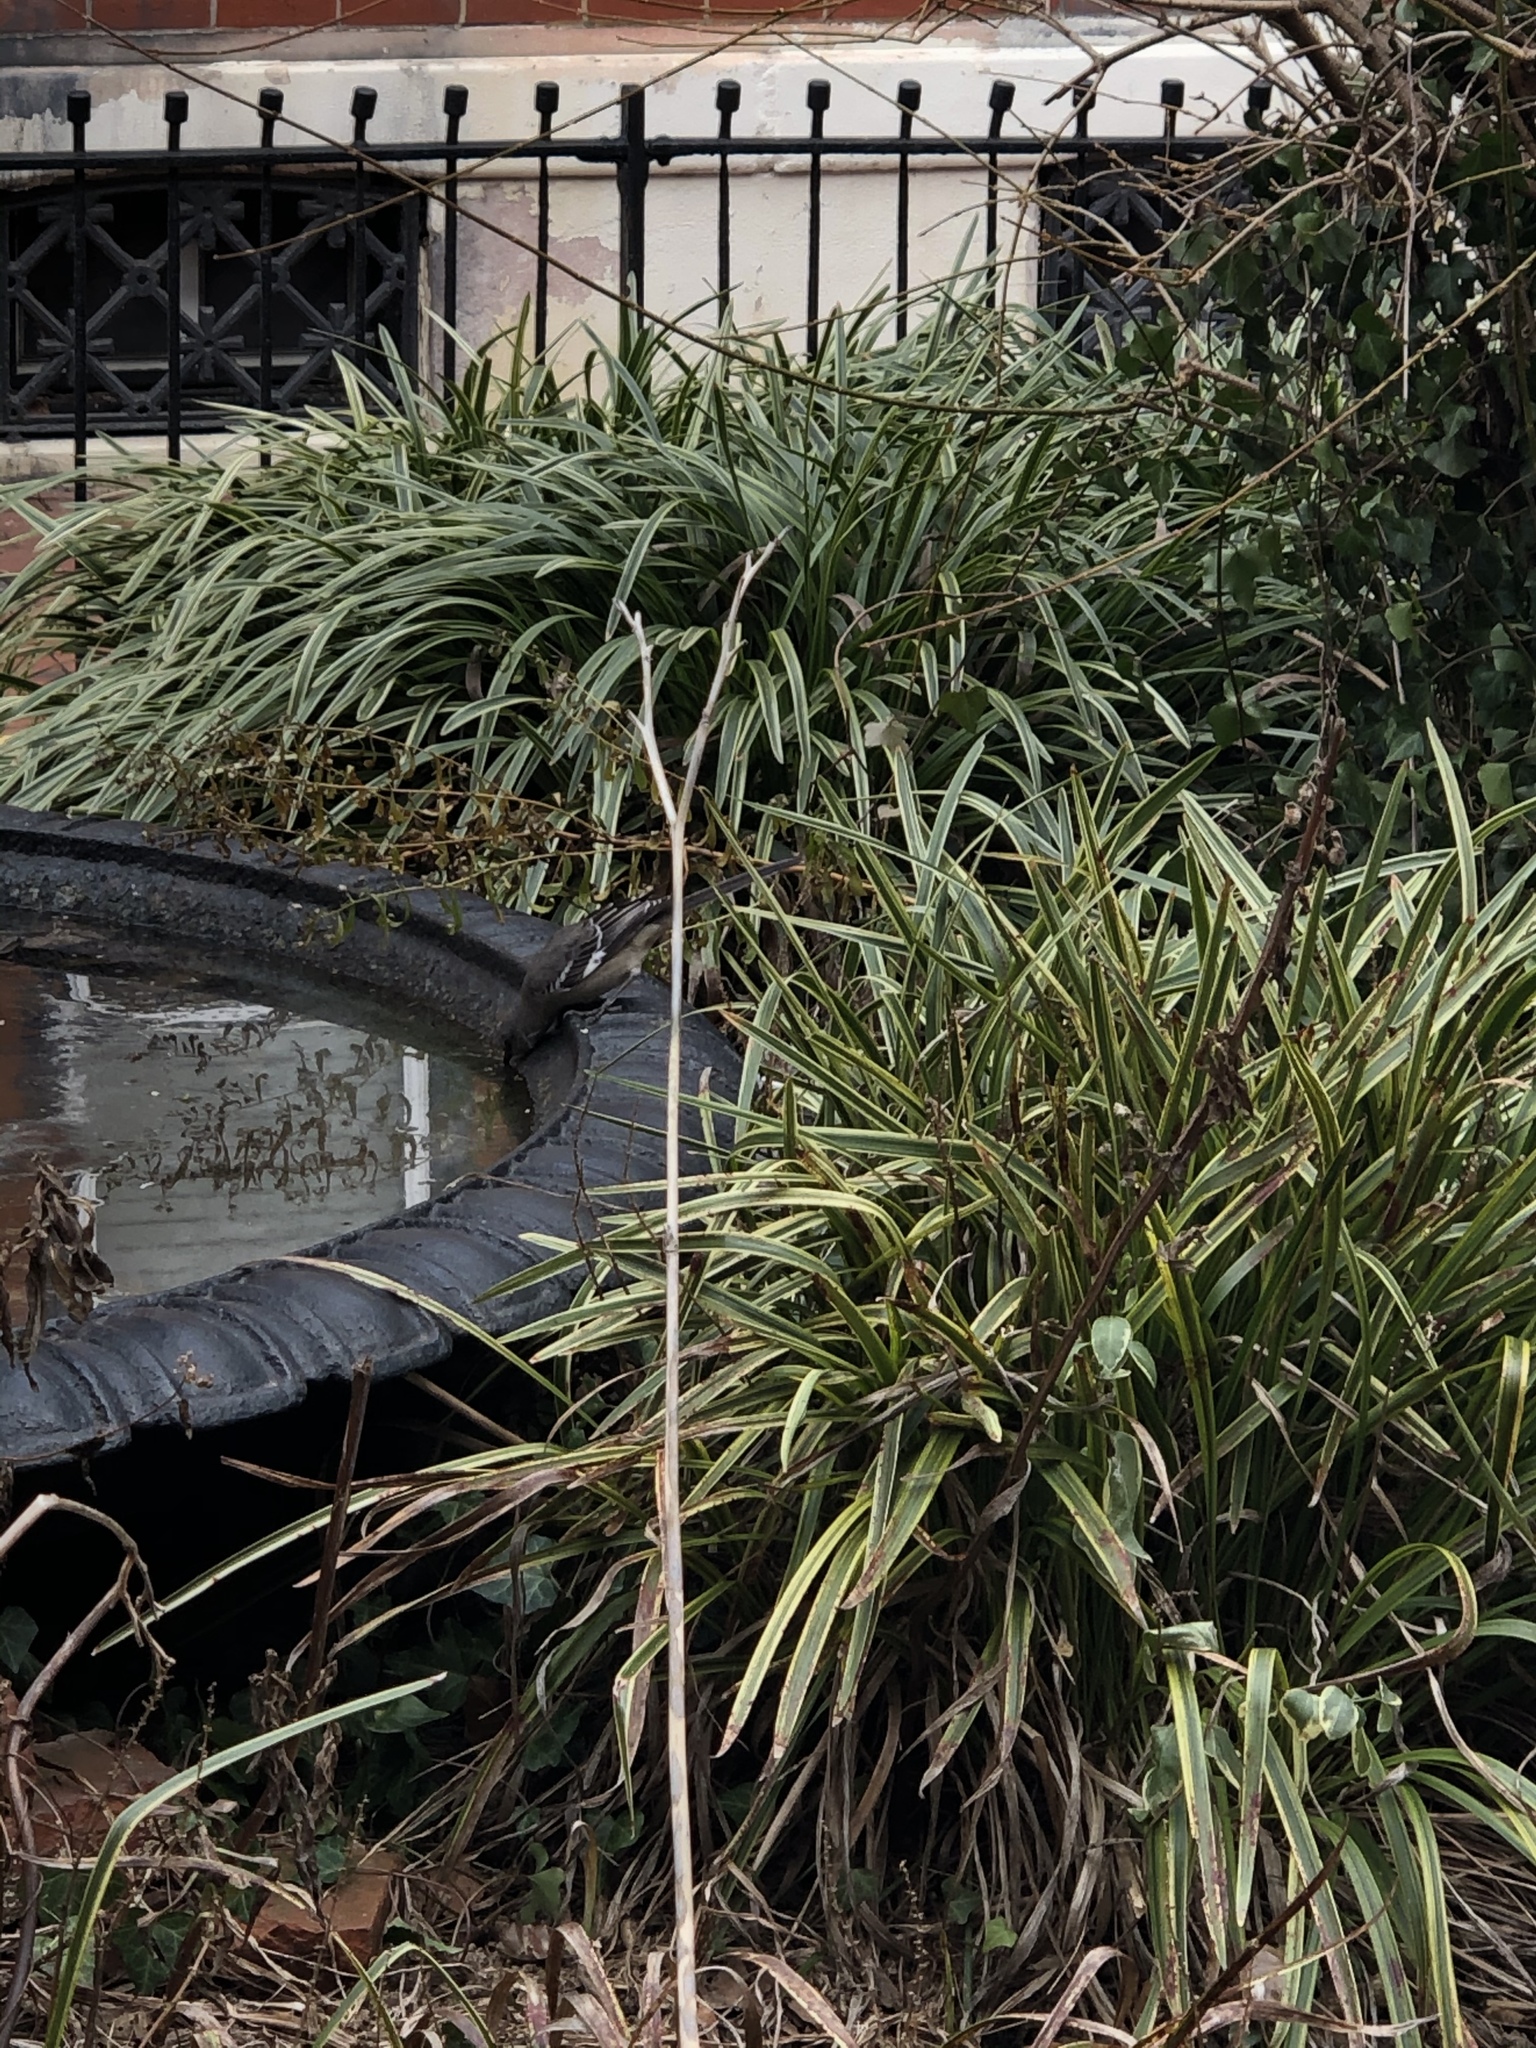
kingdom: Animalia
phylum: Chordata
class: Aves
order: Passeriformes
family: Mimidae
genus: Mimus
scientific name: Mimus polyglottos
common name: Northern mockingbird
